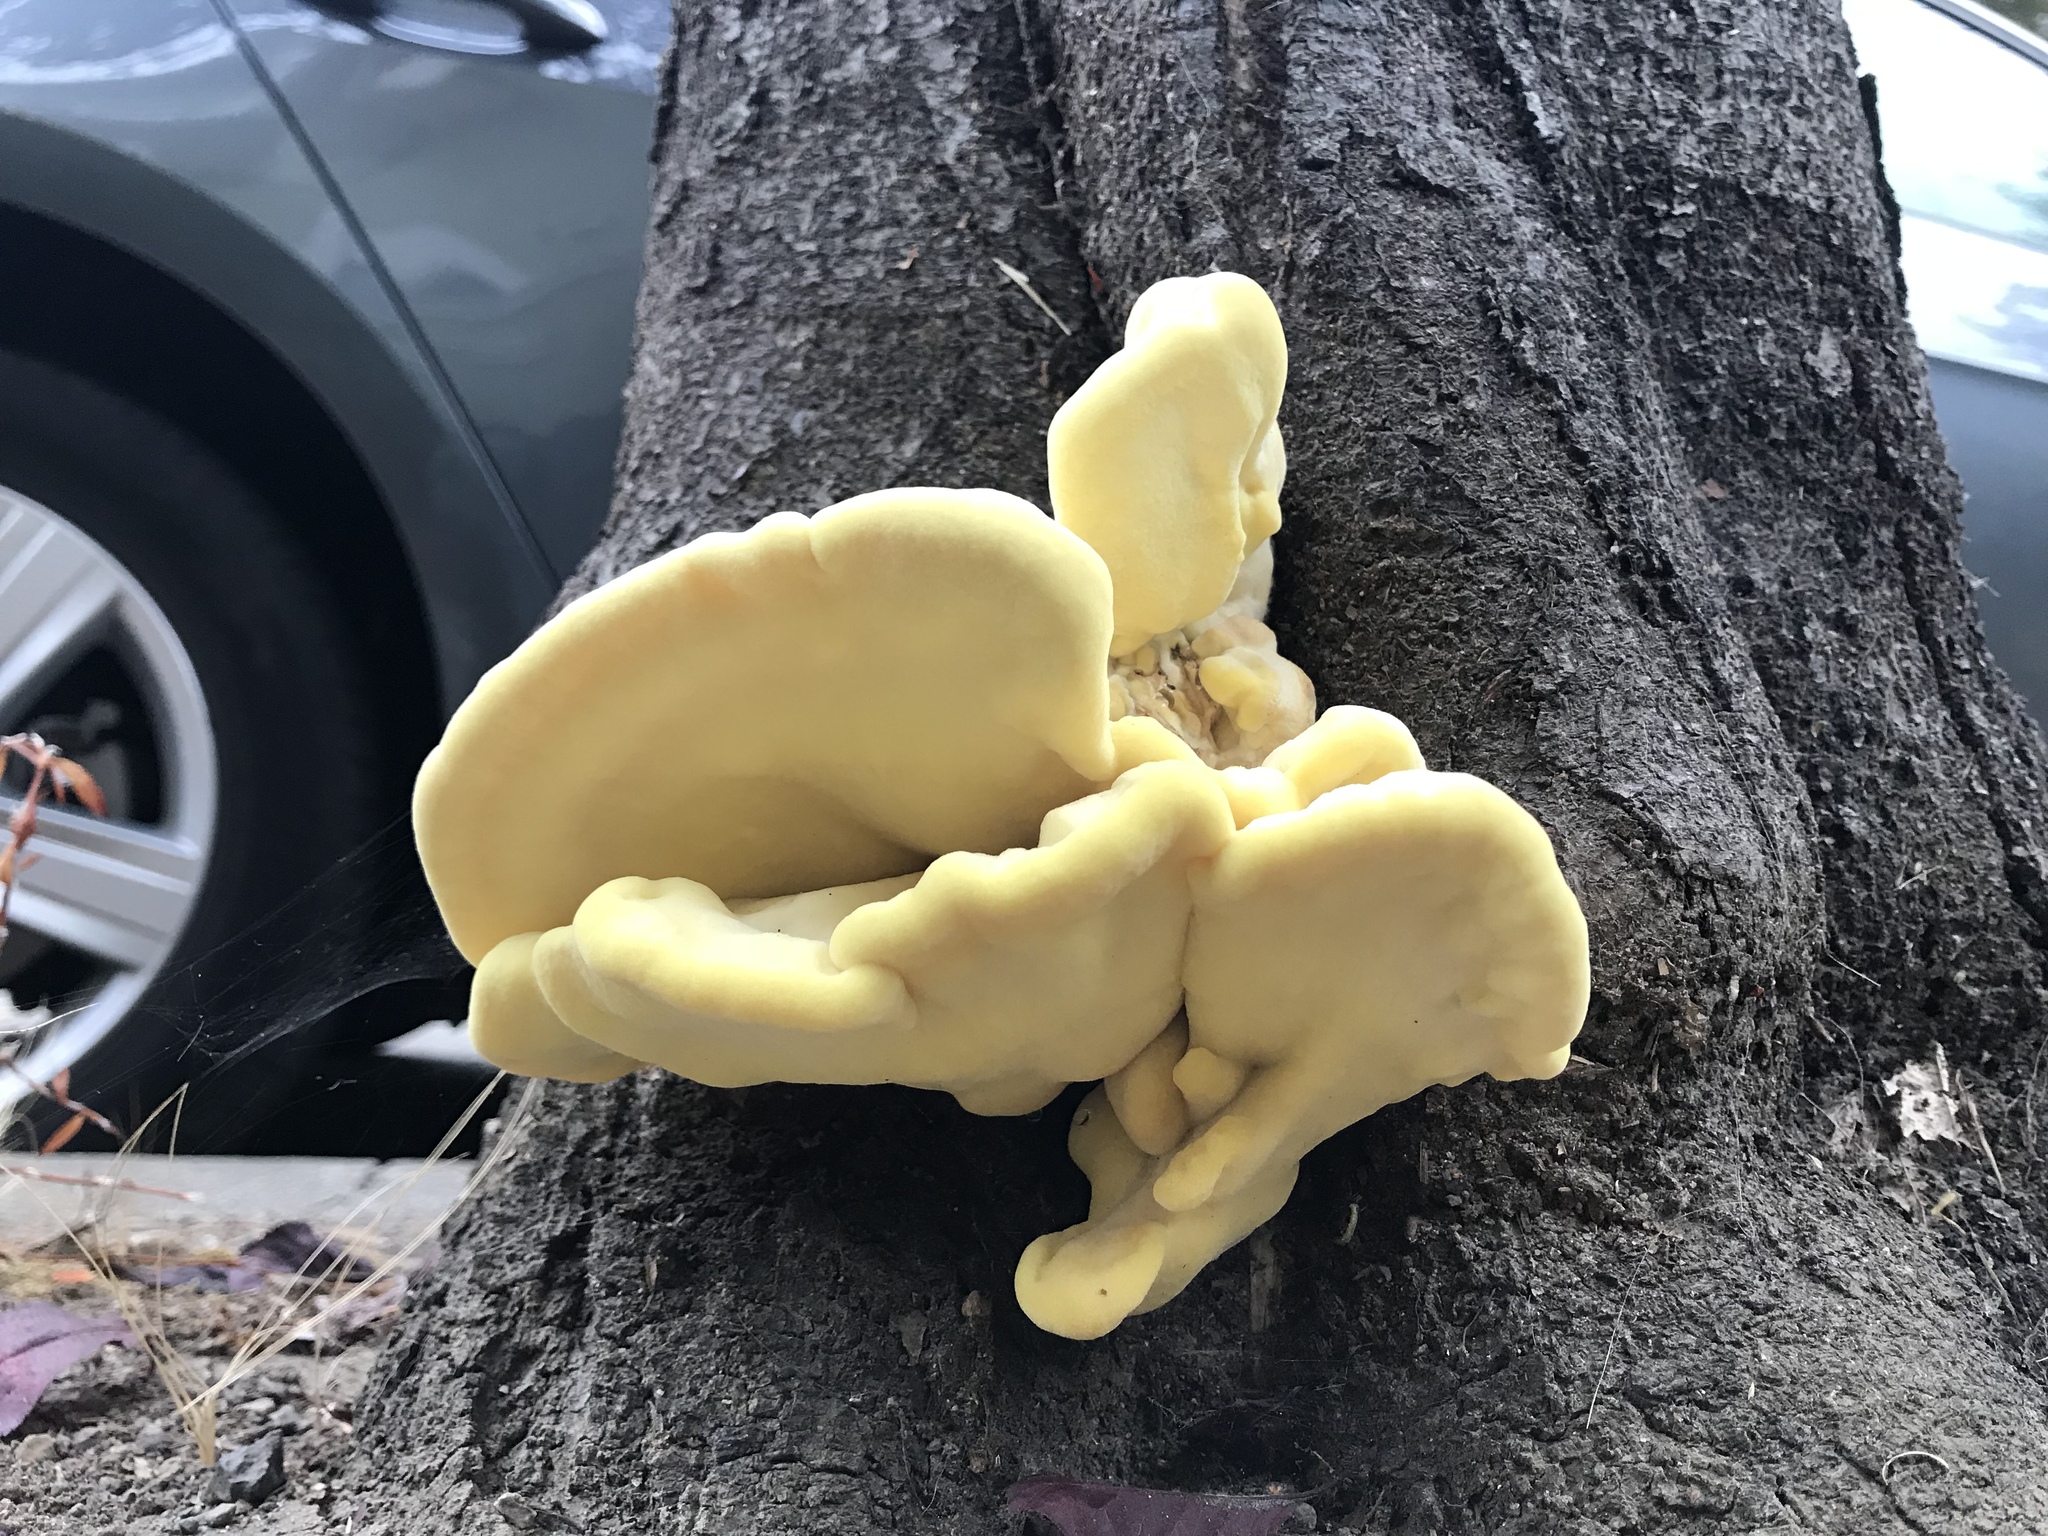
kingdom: Fungi
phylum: Basidiomycota
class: Agaricomycetes
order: Polyporales
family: Laetiporaceae
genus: Laetiporus
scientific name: Laetiporus gilbertsonii
